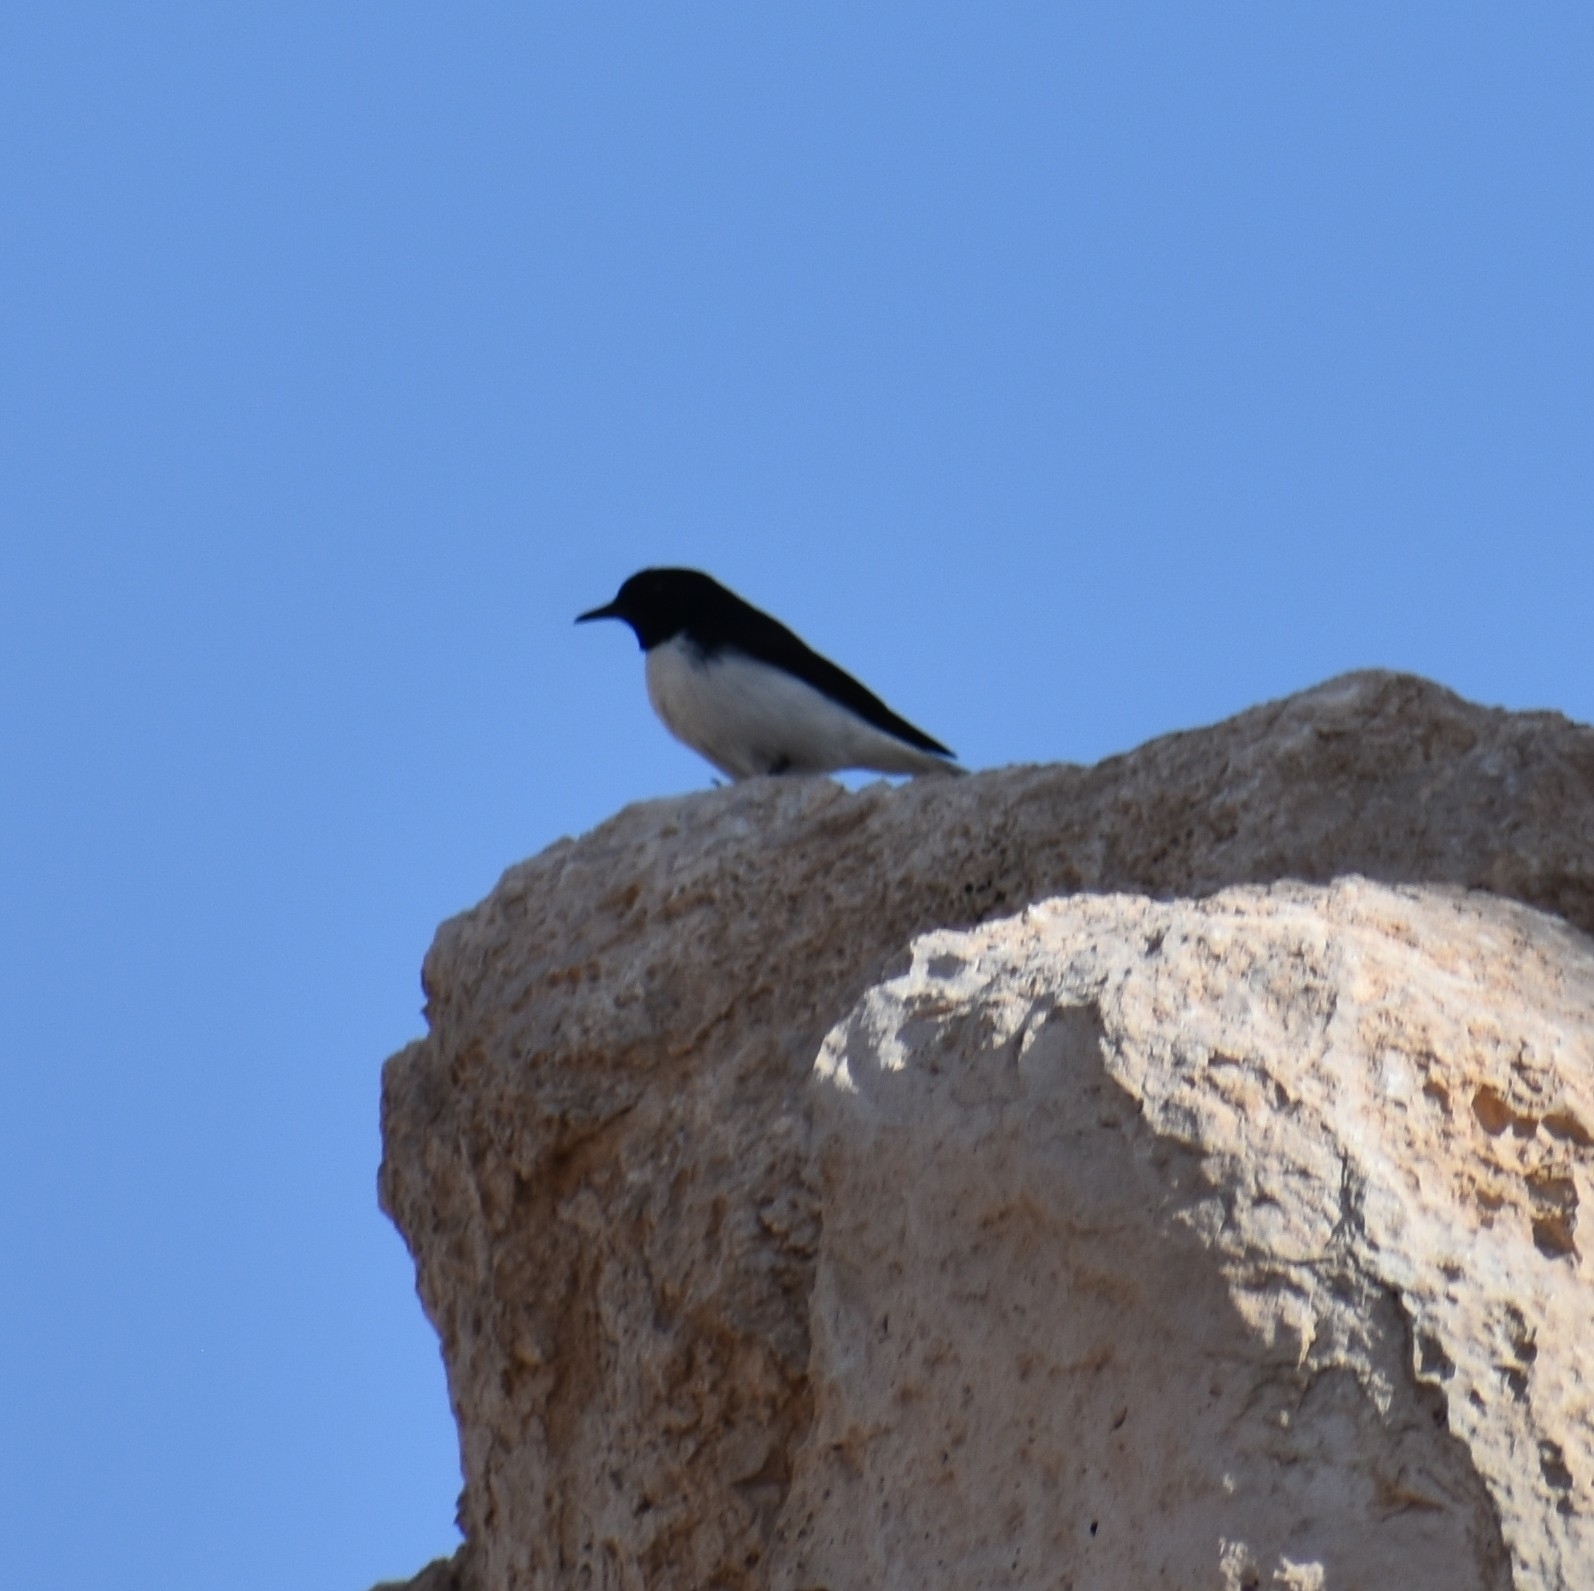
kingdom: Animalia
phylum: Chordata
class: Aves
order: Passeriformes
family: Muscicapidae
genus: Oenanthe
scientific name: Oenanthe albonigra
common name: Hume's wheatear
